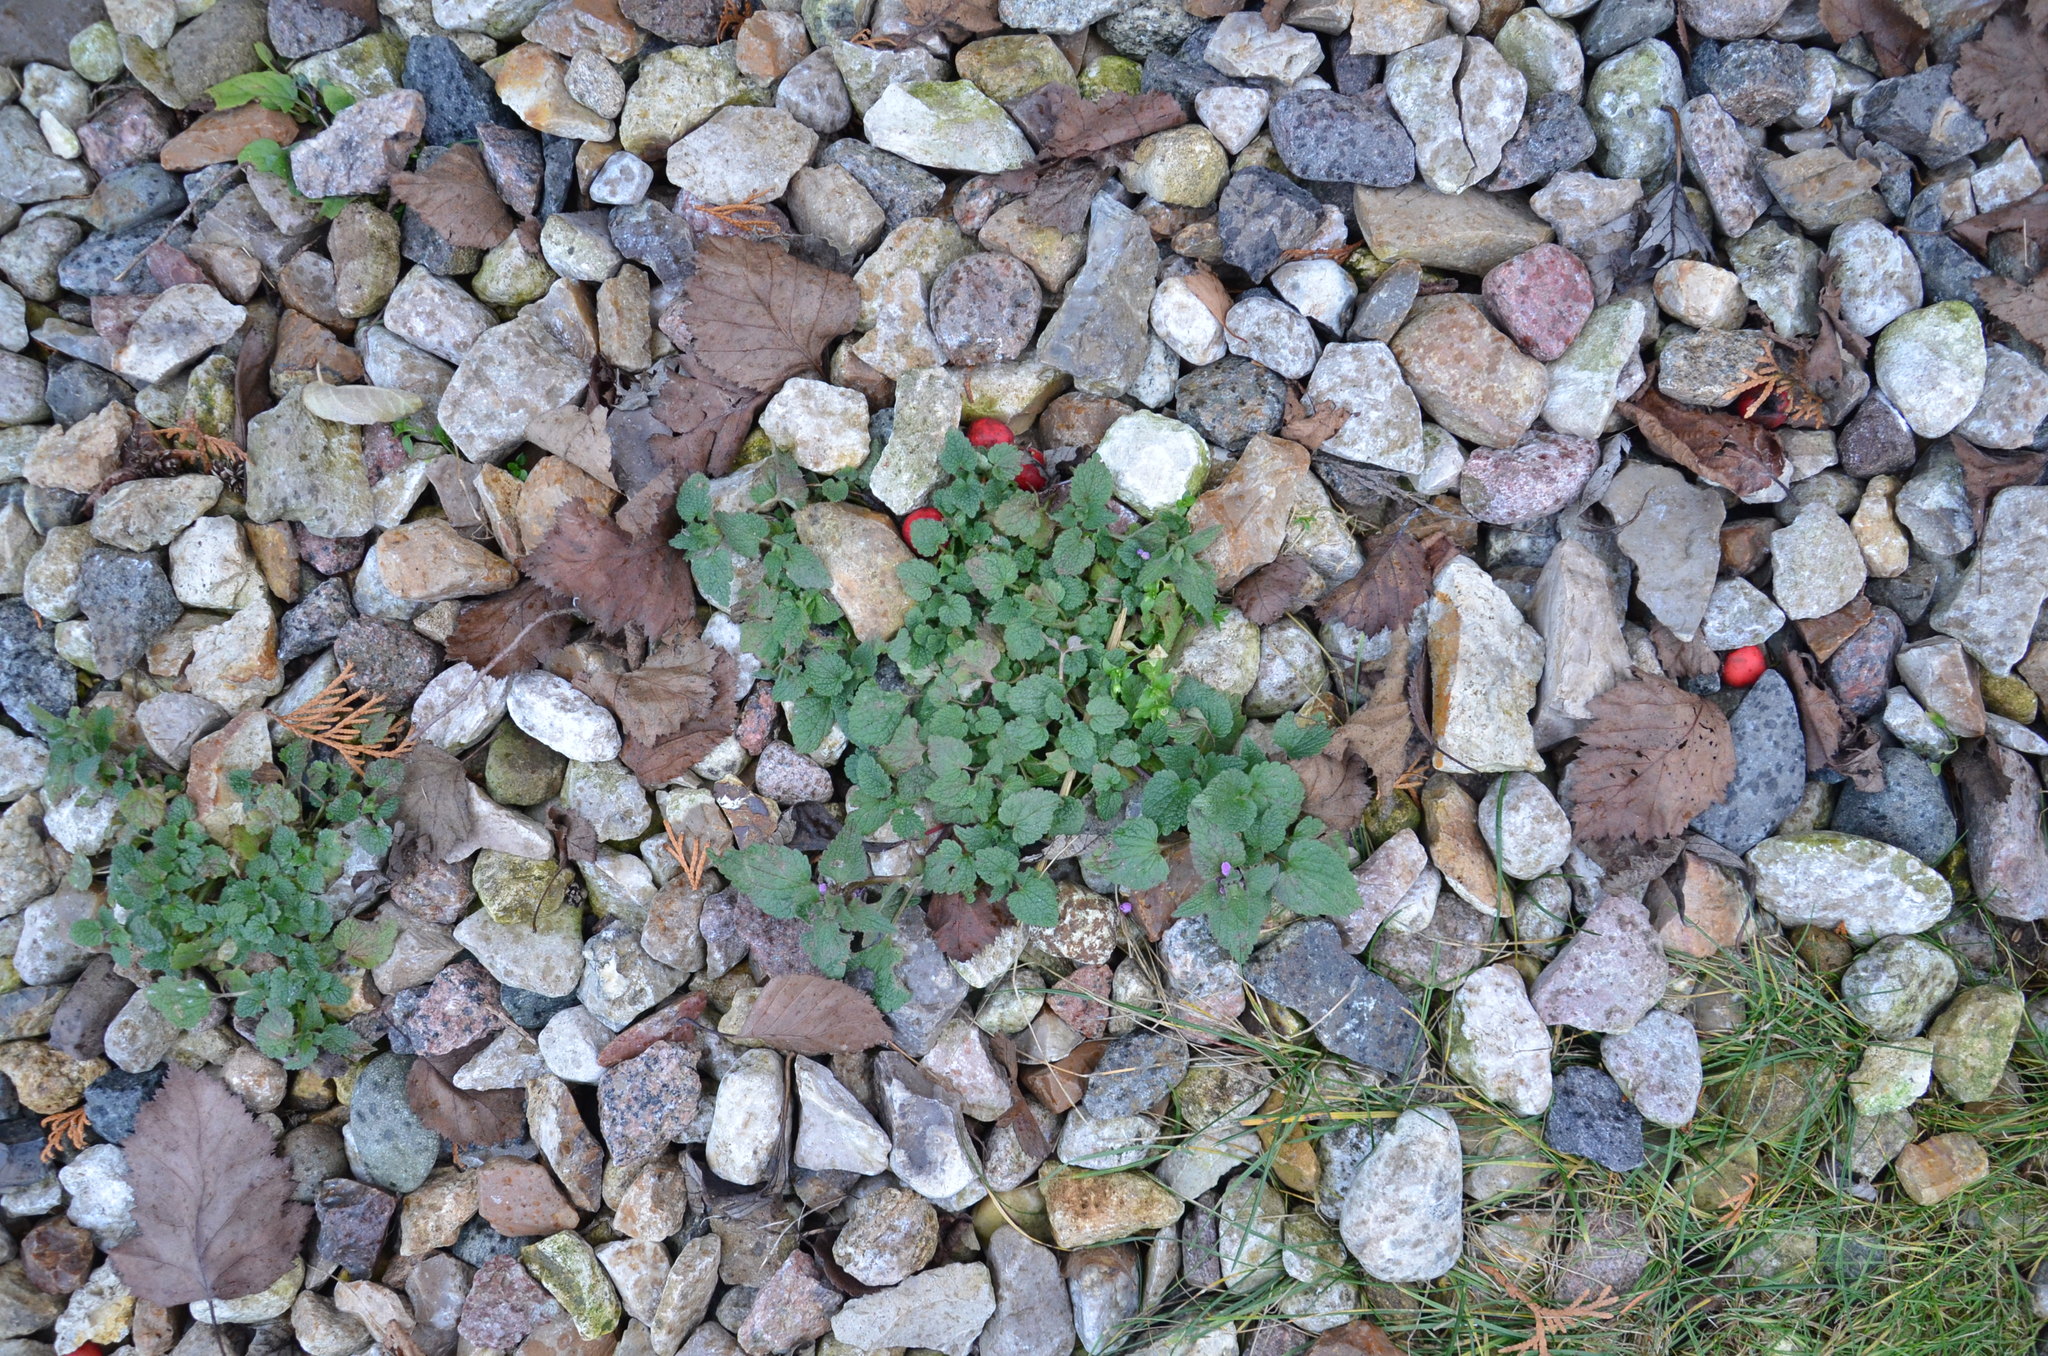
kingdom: Plantae
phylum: Tracheophyta
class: Magnoliopsida
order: Lamiales
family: Lamiaceae
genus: Lamium
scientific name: Lamium purpureum
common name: Red dead-nettle
